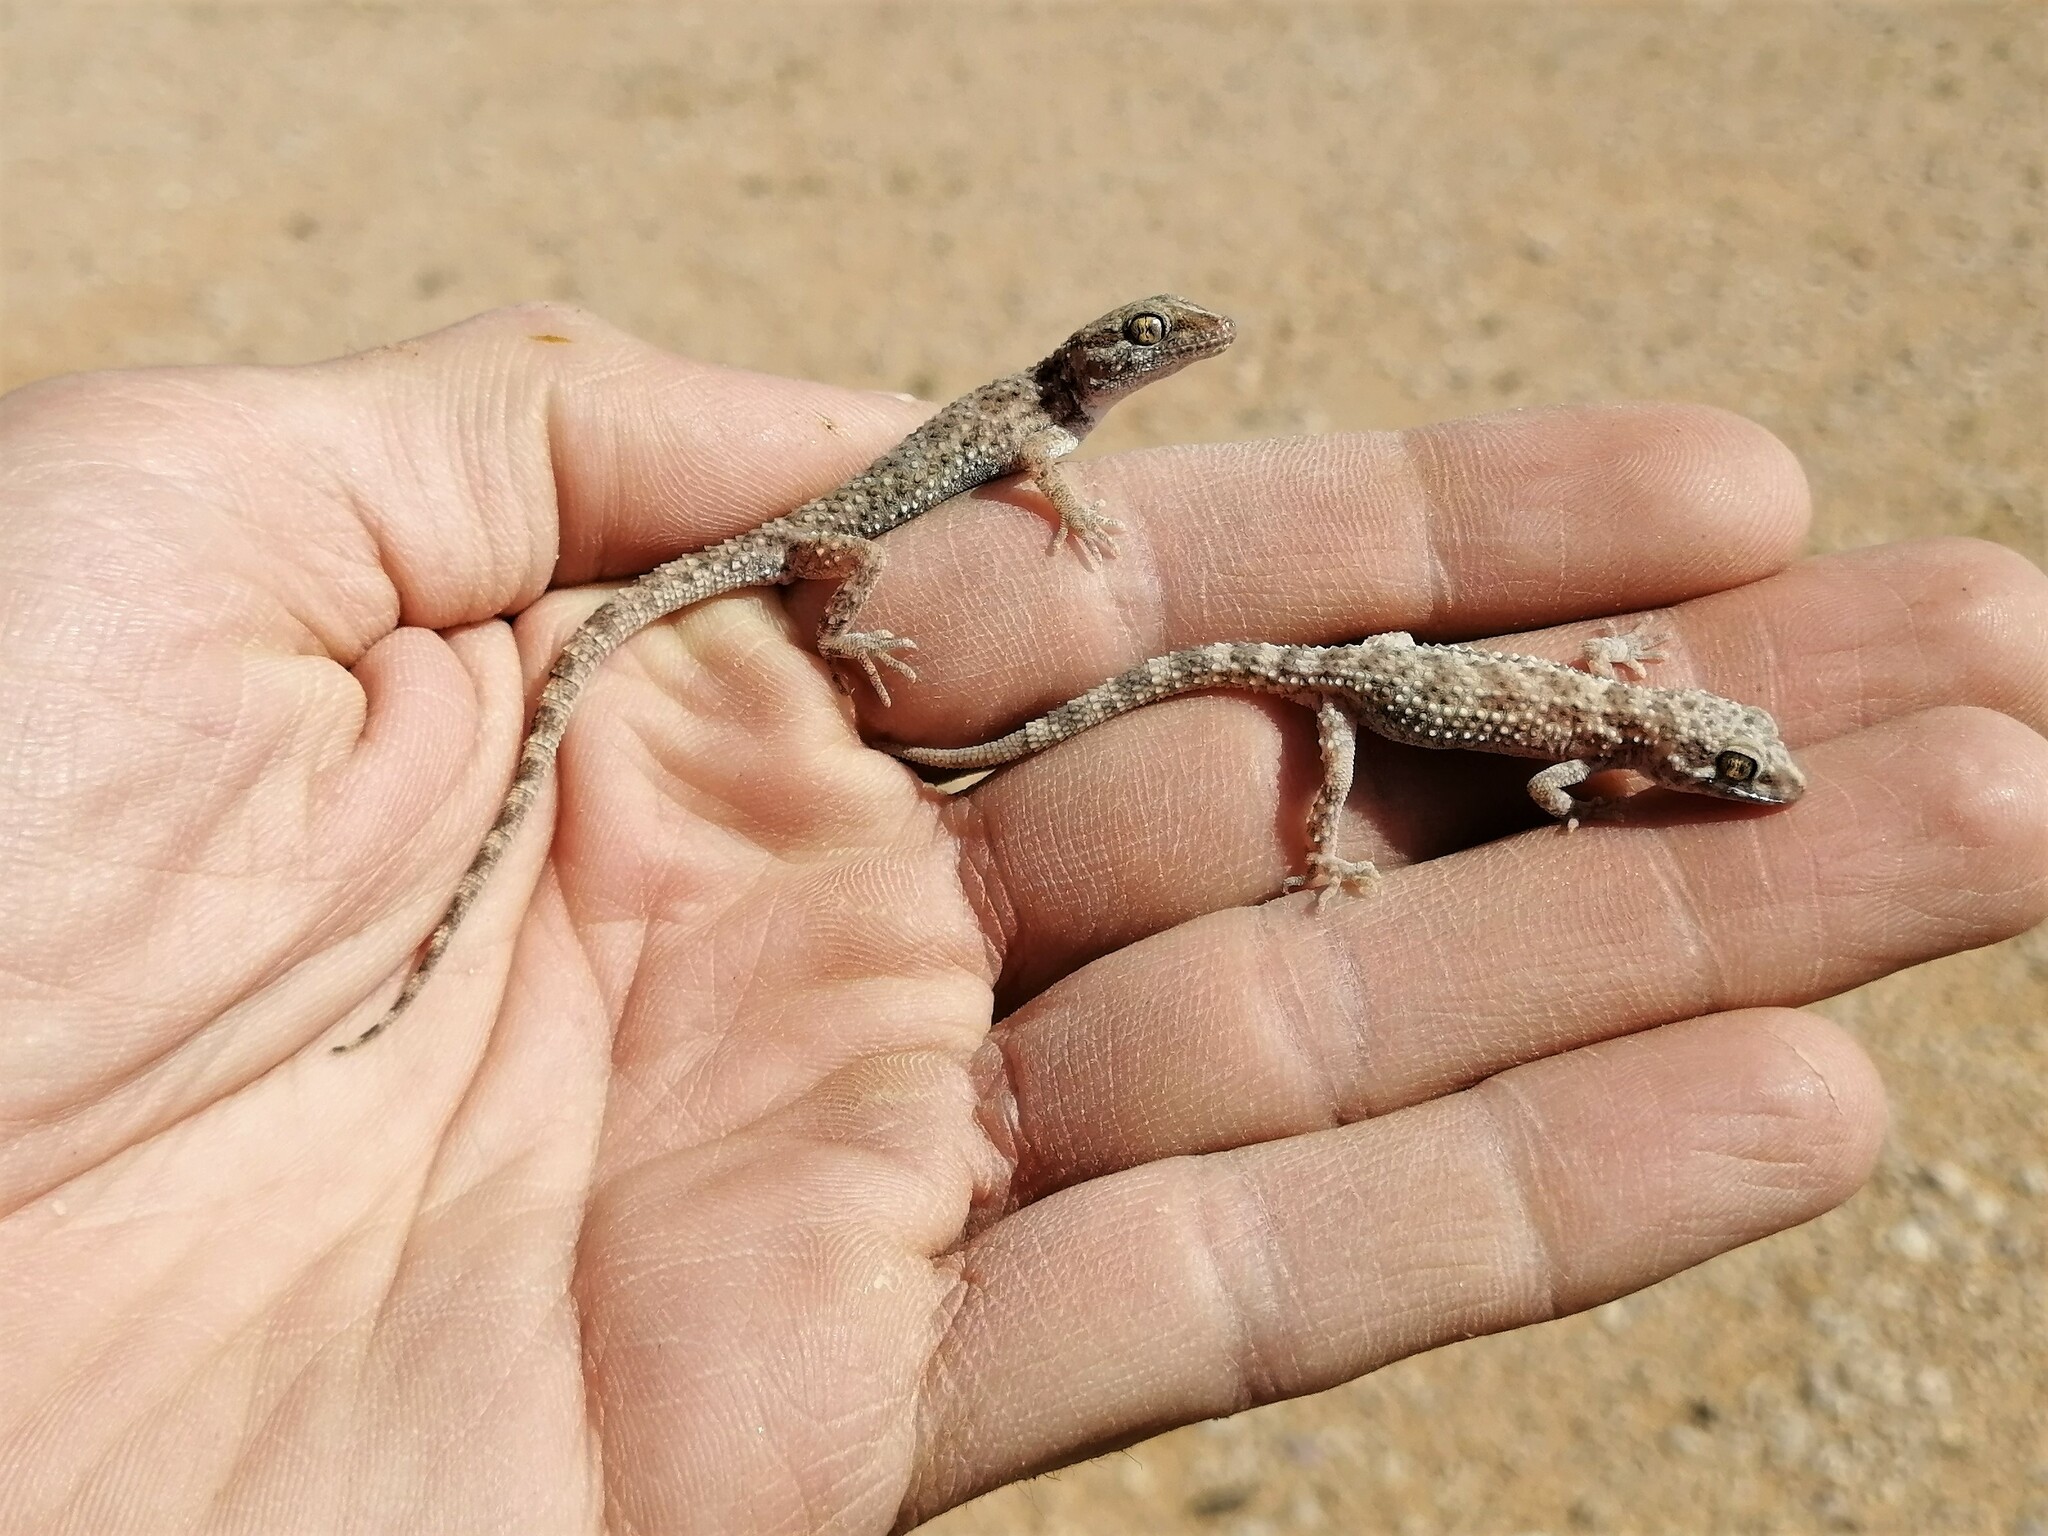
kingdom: Animalia
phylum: Chordata
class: Squamata
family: Gekkonidae
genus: Bunopus
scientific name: Bunopus tuberculatus
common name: Southern tuberculated gecko
